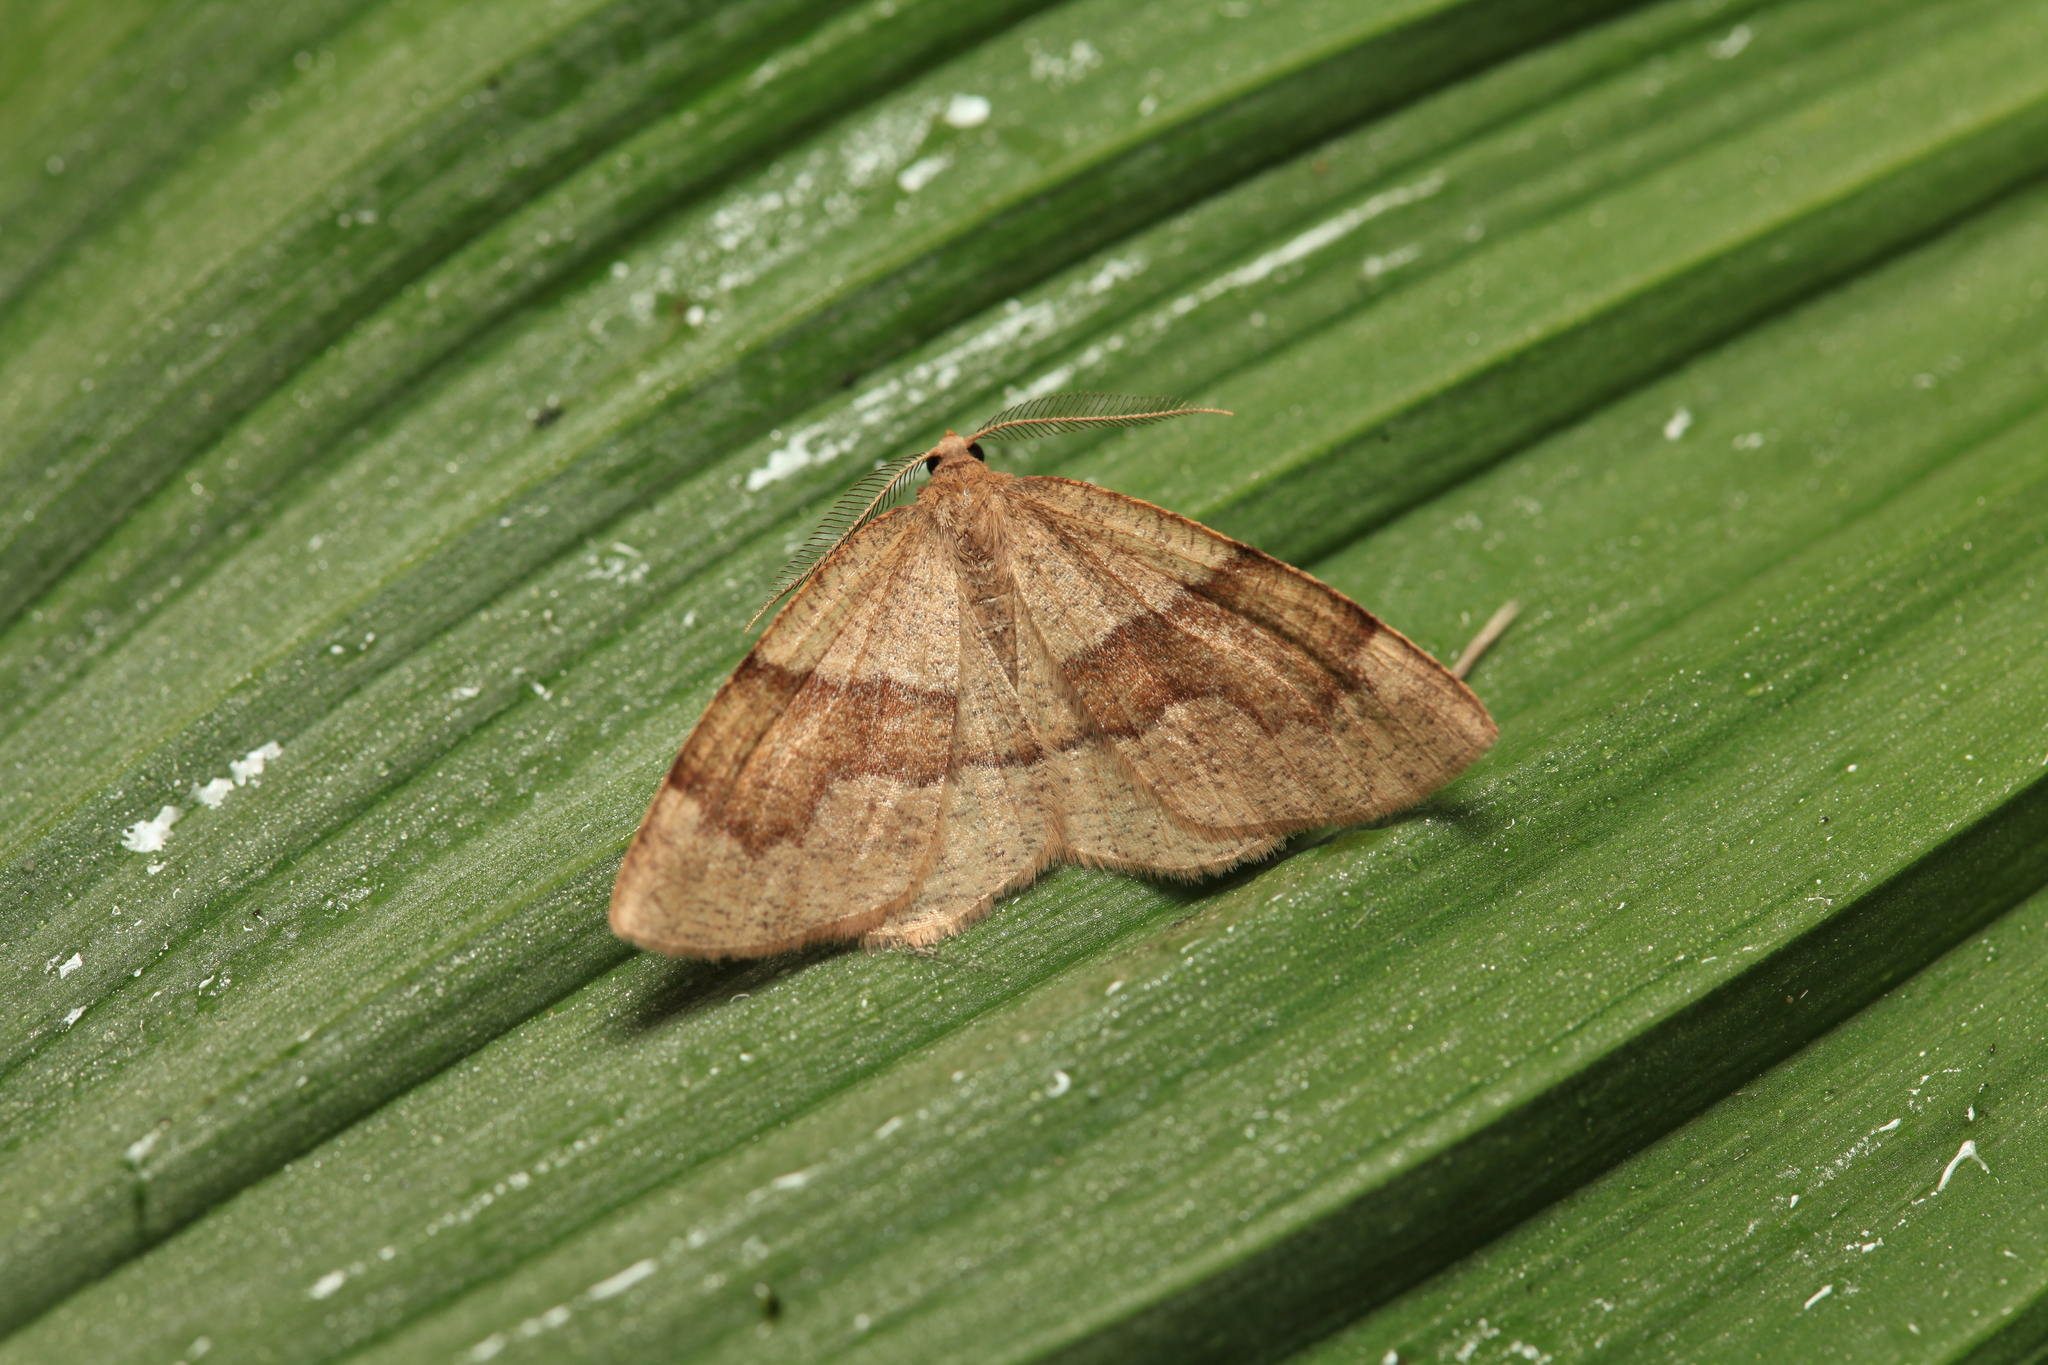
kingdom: Animalia
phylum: Arthropoda
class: Insecta
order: Lepidoptera
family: Geometridae
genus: Plagodis
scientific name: Plagodis pulveraria
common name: Barred umber
